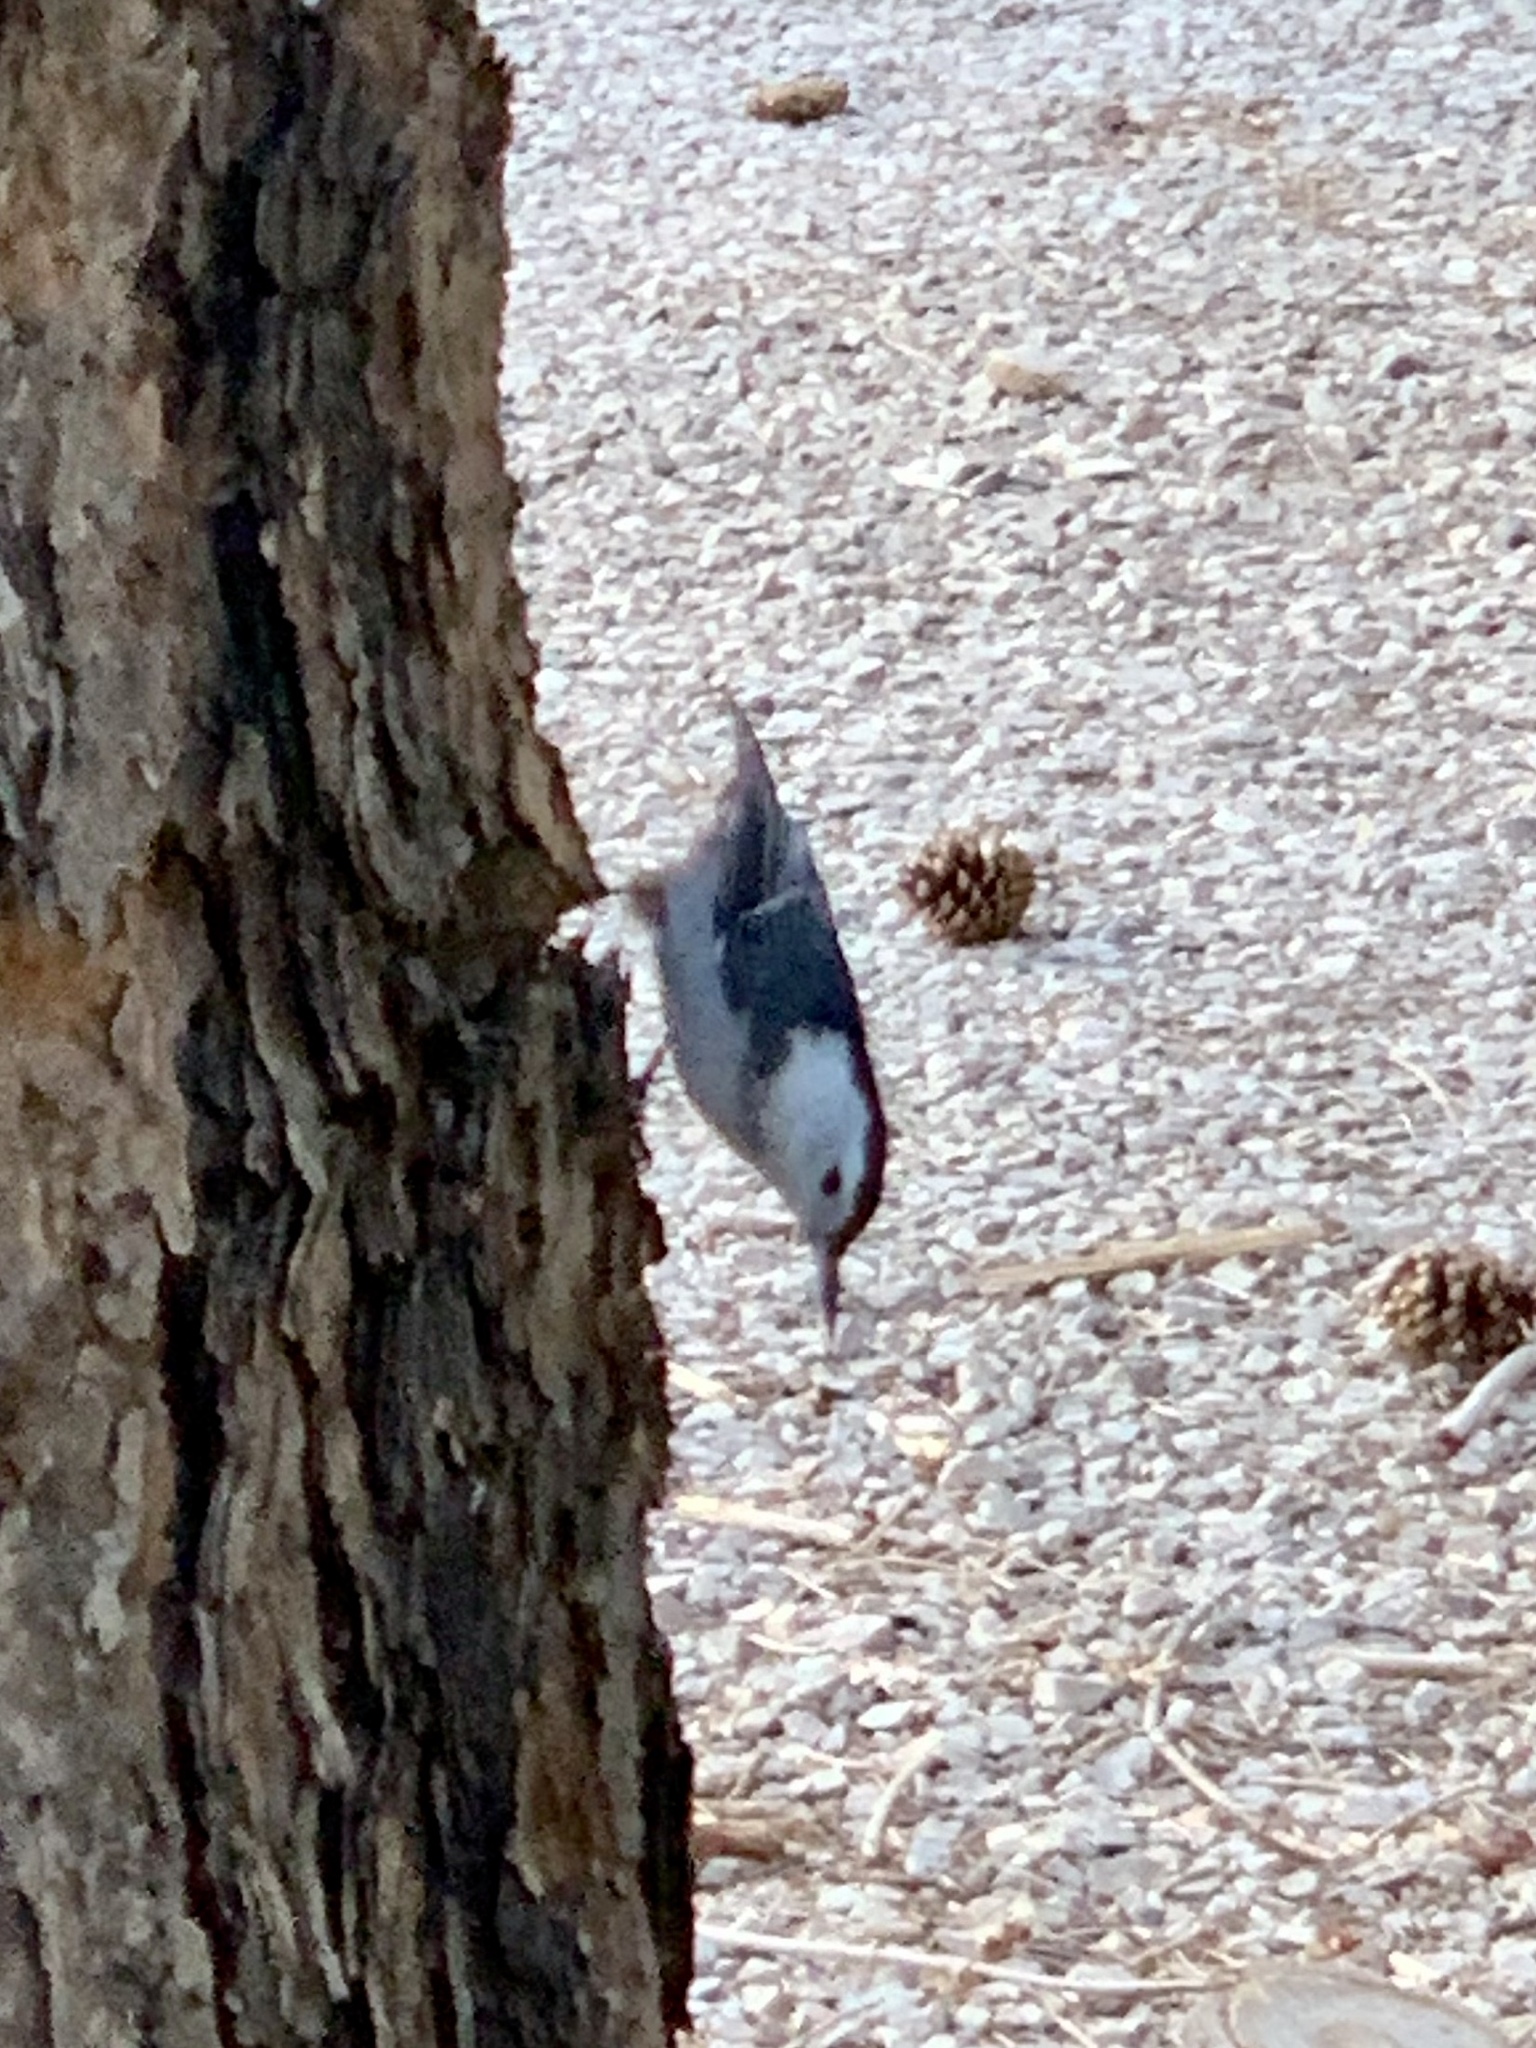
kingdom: Animalia
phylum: Chordata
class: Aves
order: Passeriformes
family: Sittidae
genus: Sitta
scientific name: Sitta carolinensis
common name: White-breasted nuthatch
